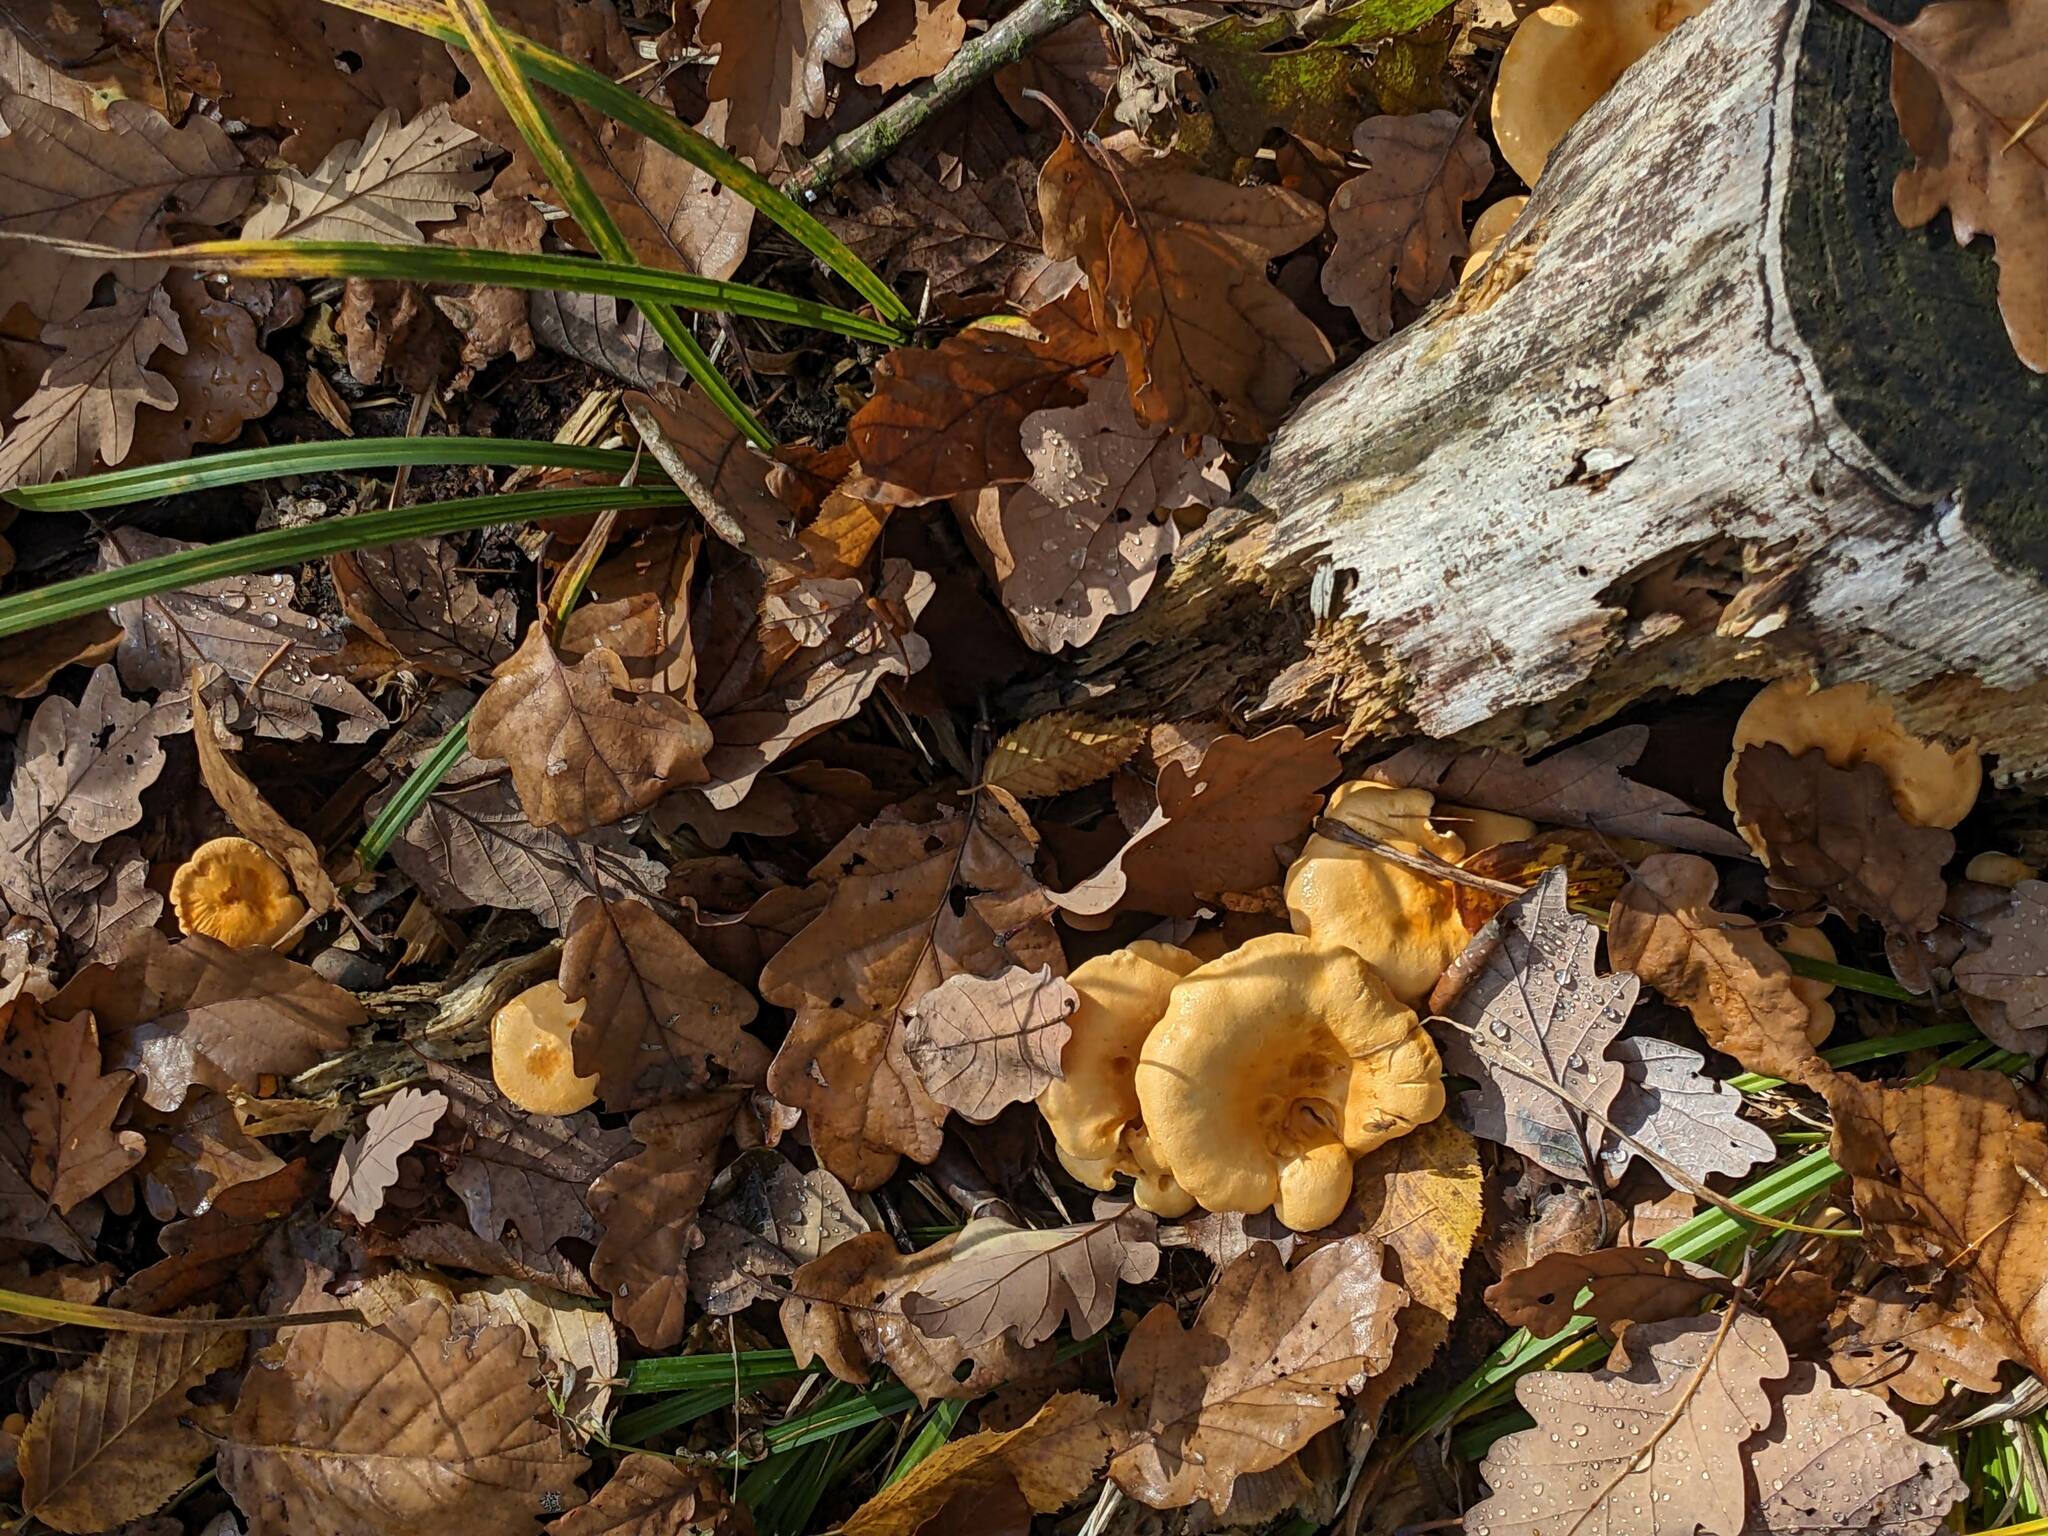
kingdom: Fungi
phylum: Basidiomycota
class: Agaricomycetes
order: Cantharellales
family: Hydnaceae
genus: Cantharellus
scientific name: Cantharellus cibarius
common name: Chanterelle
